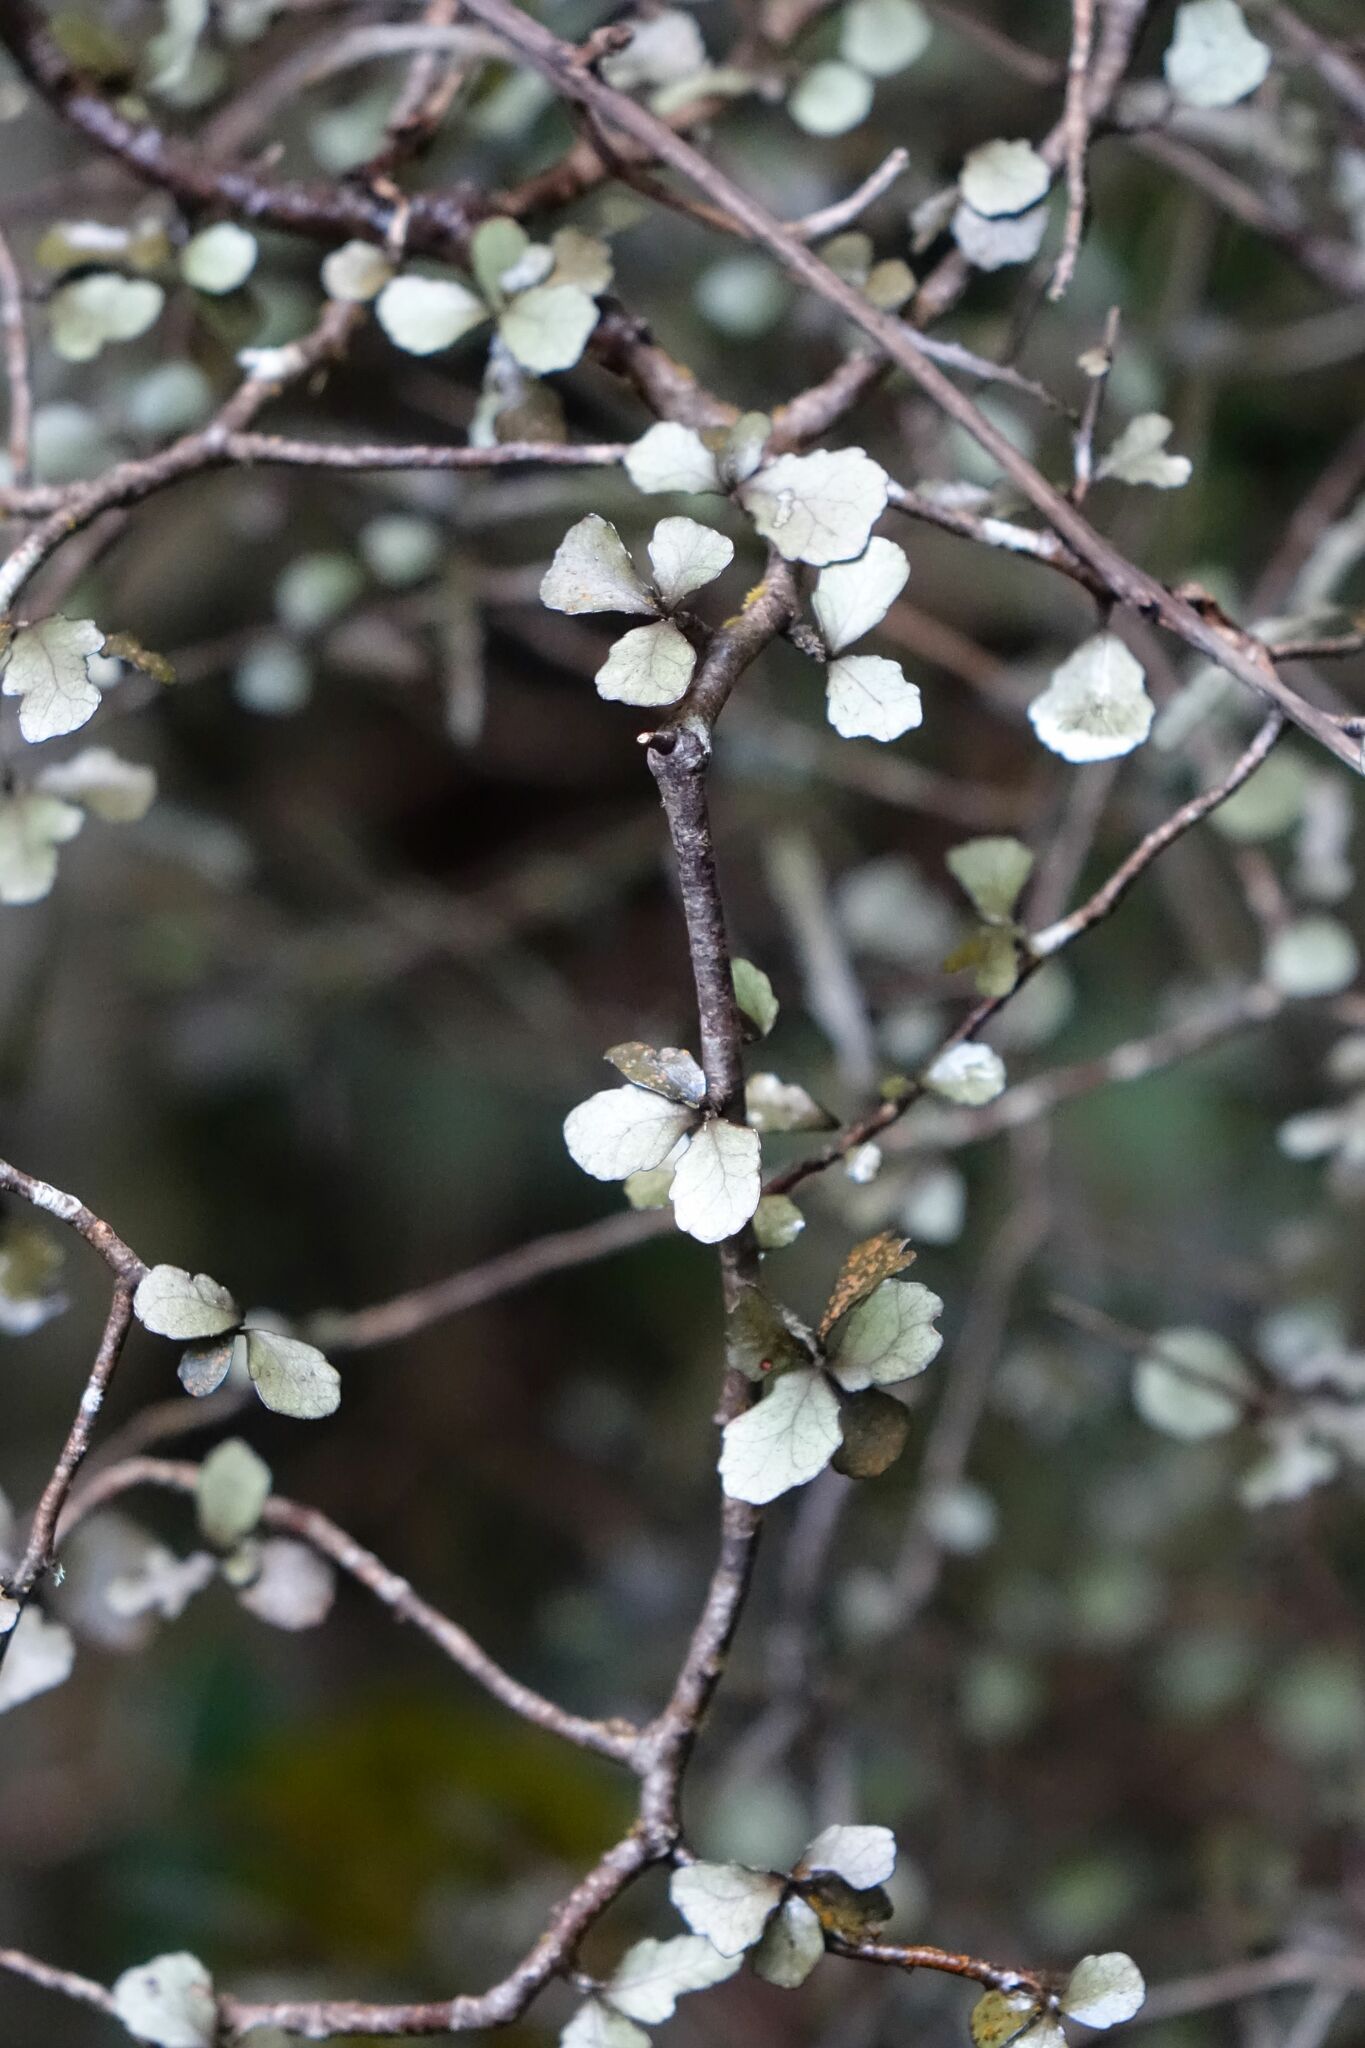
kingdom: Plantae
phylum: Tracheophyta
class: Magnoliopsida
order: Oxalidales
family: Elaeocarpaceae
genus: Elaeocarpus
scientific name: Elaeocarpus hookerianus
